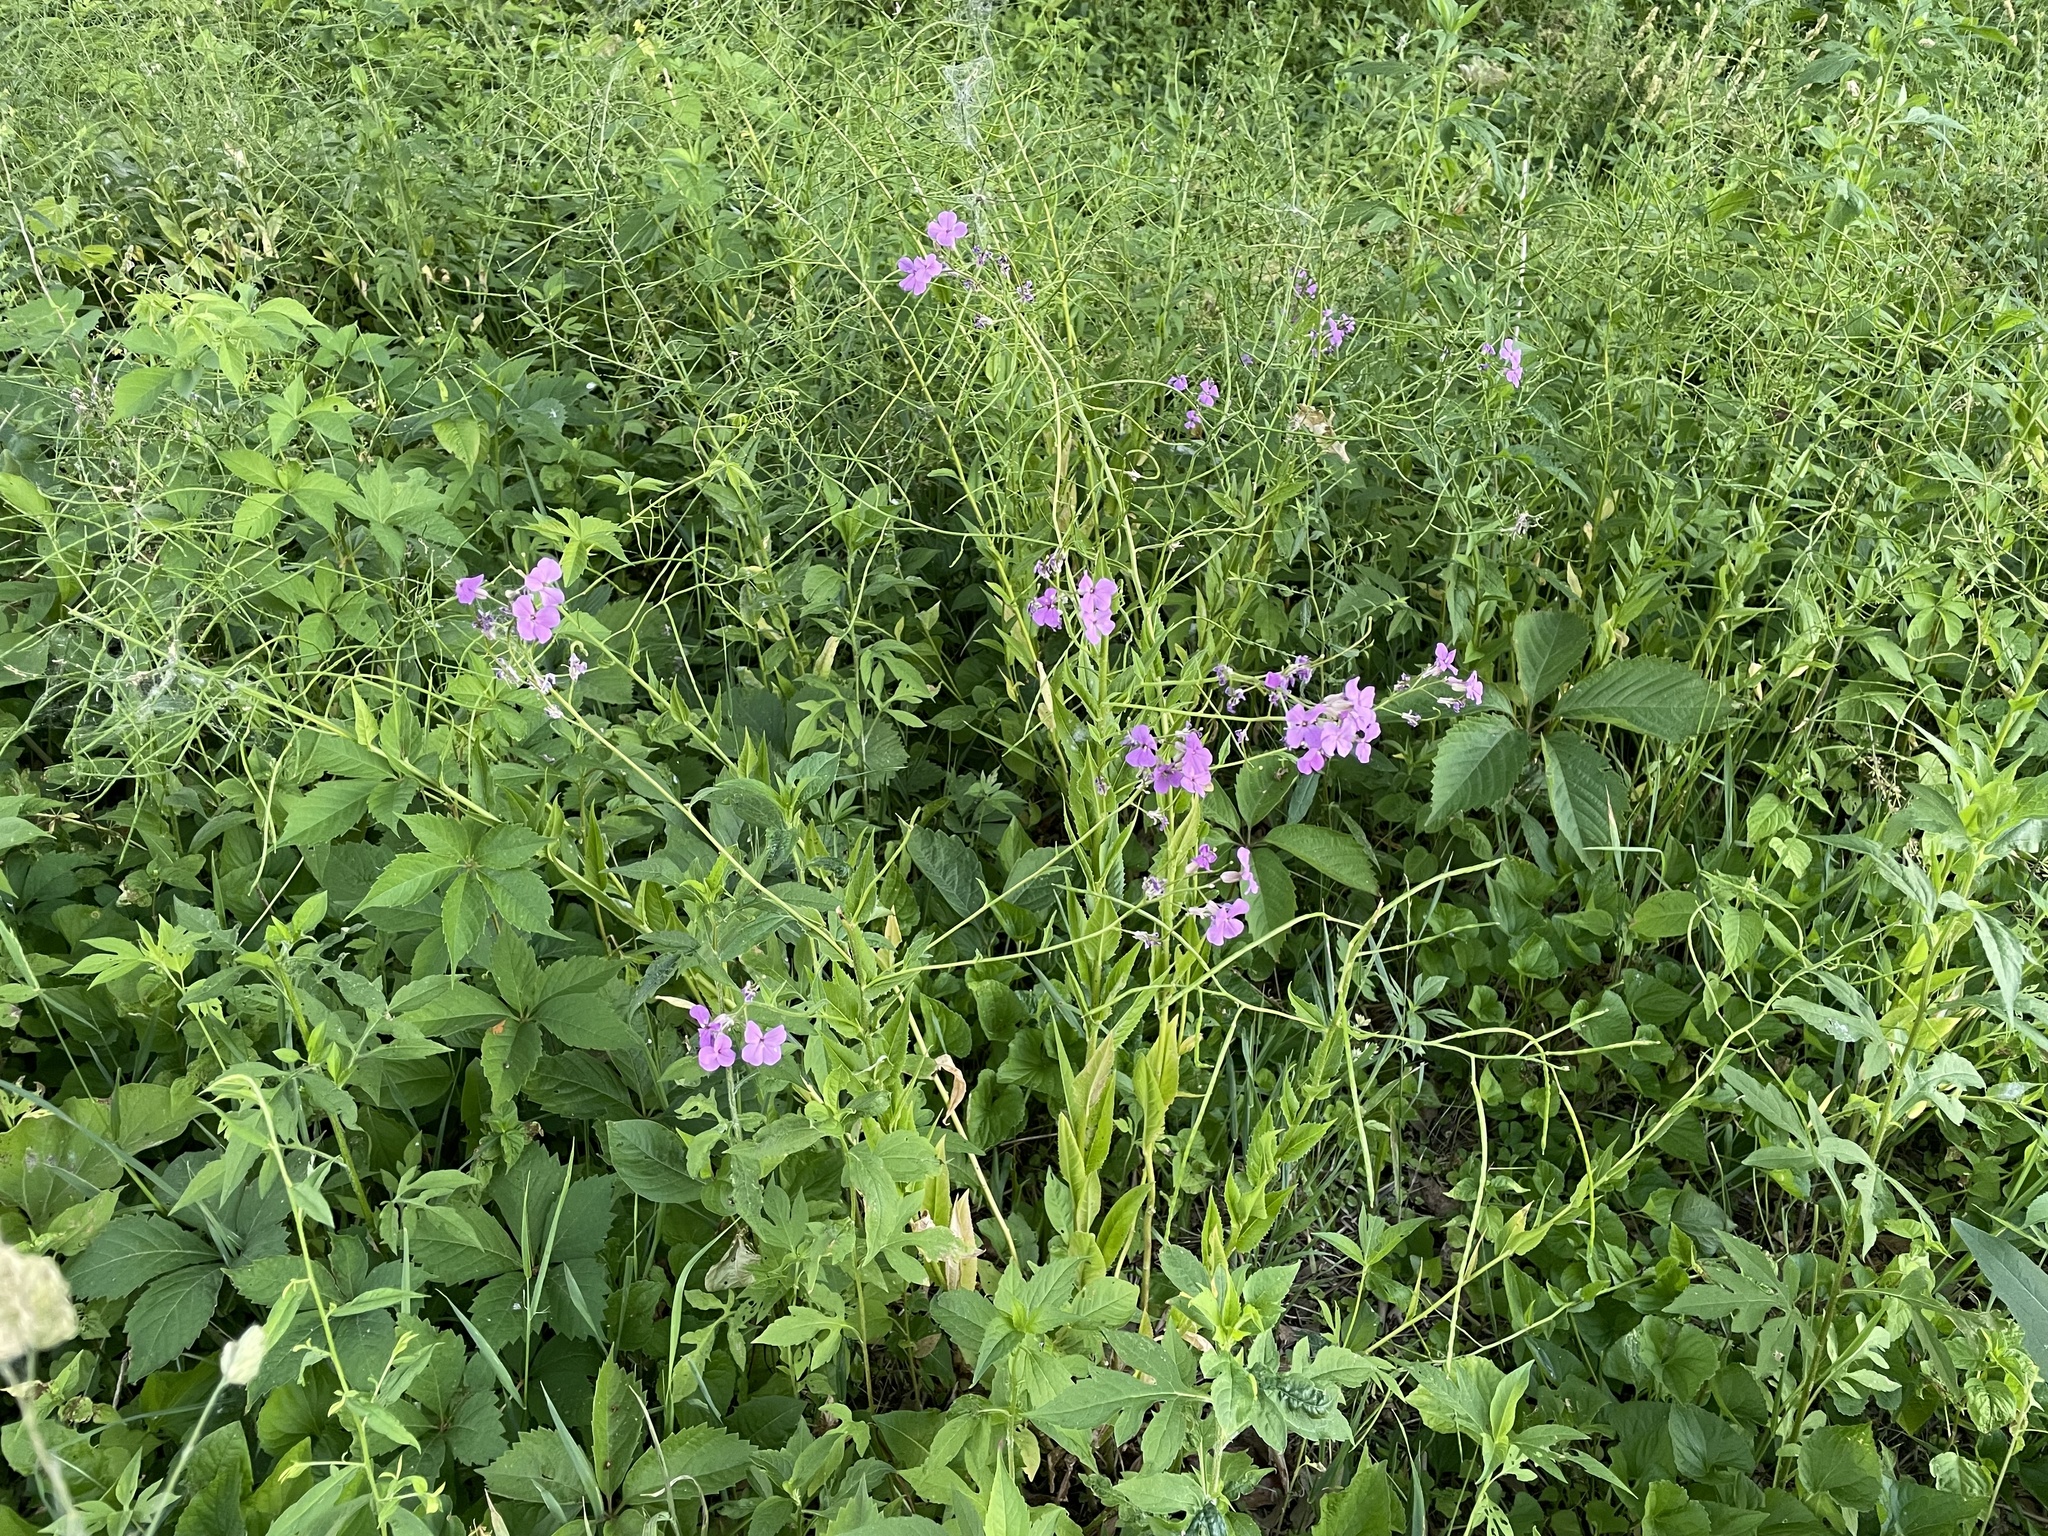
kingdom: Plantae
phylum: Tracheophyta
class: Magnoliopsida
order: Brassicales
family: Brassicaceae
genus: Hesperis
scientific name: Hesperis matronalis
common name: Dame's-violet
